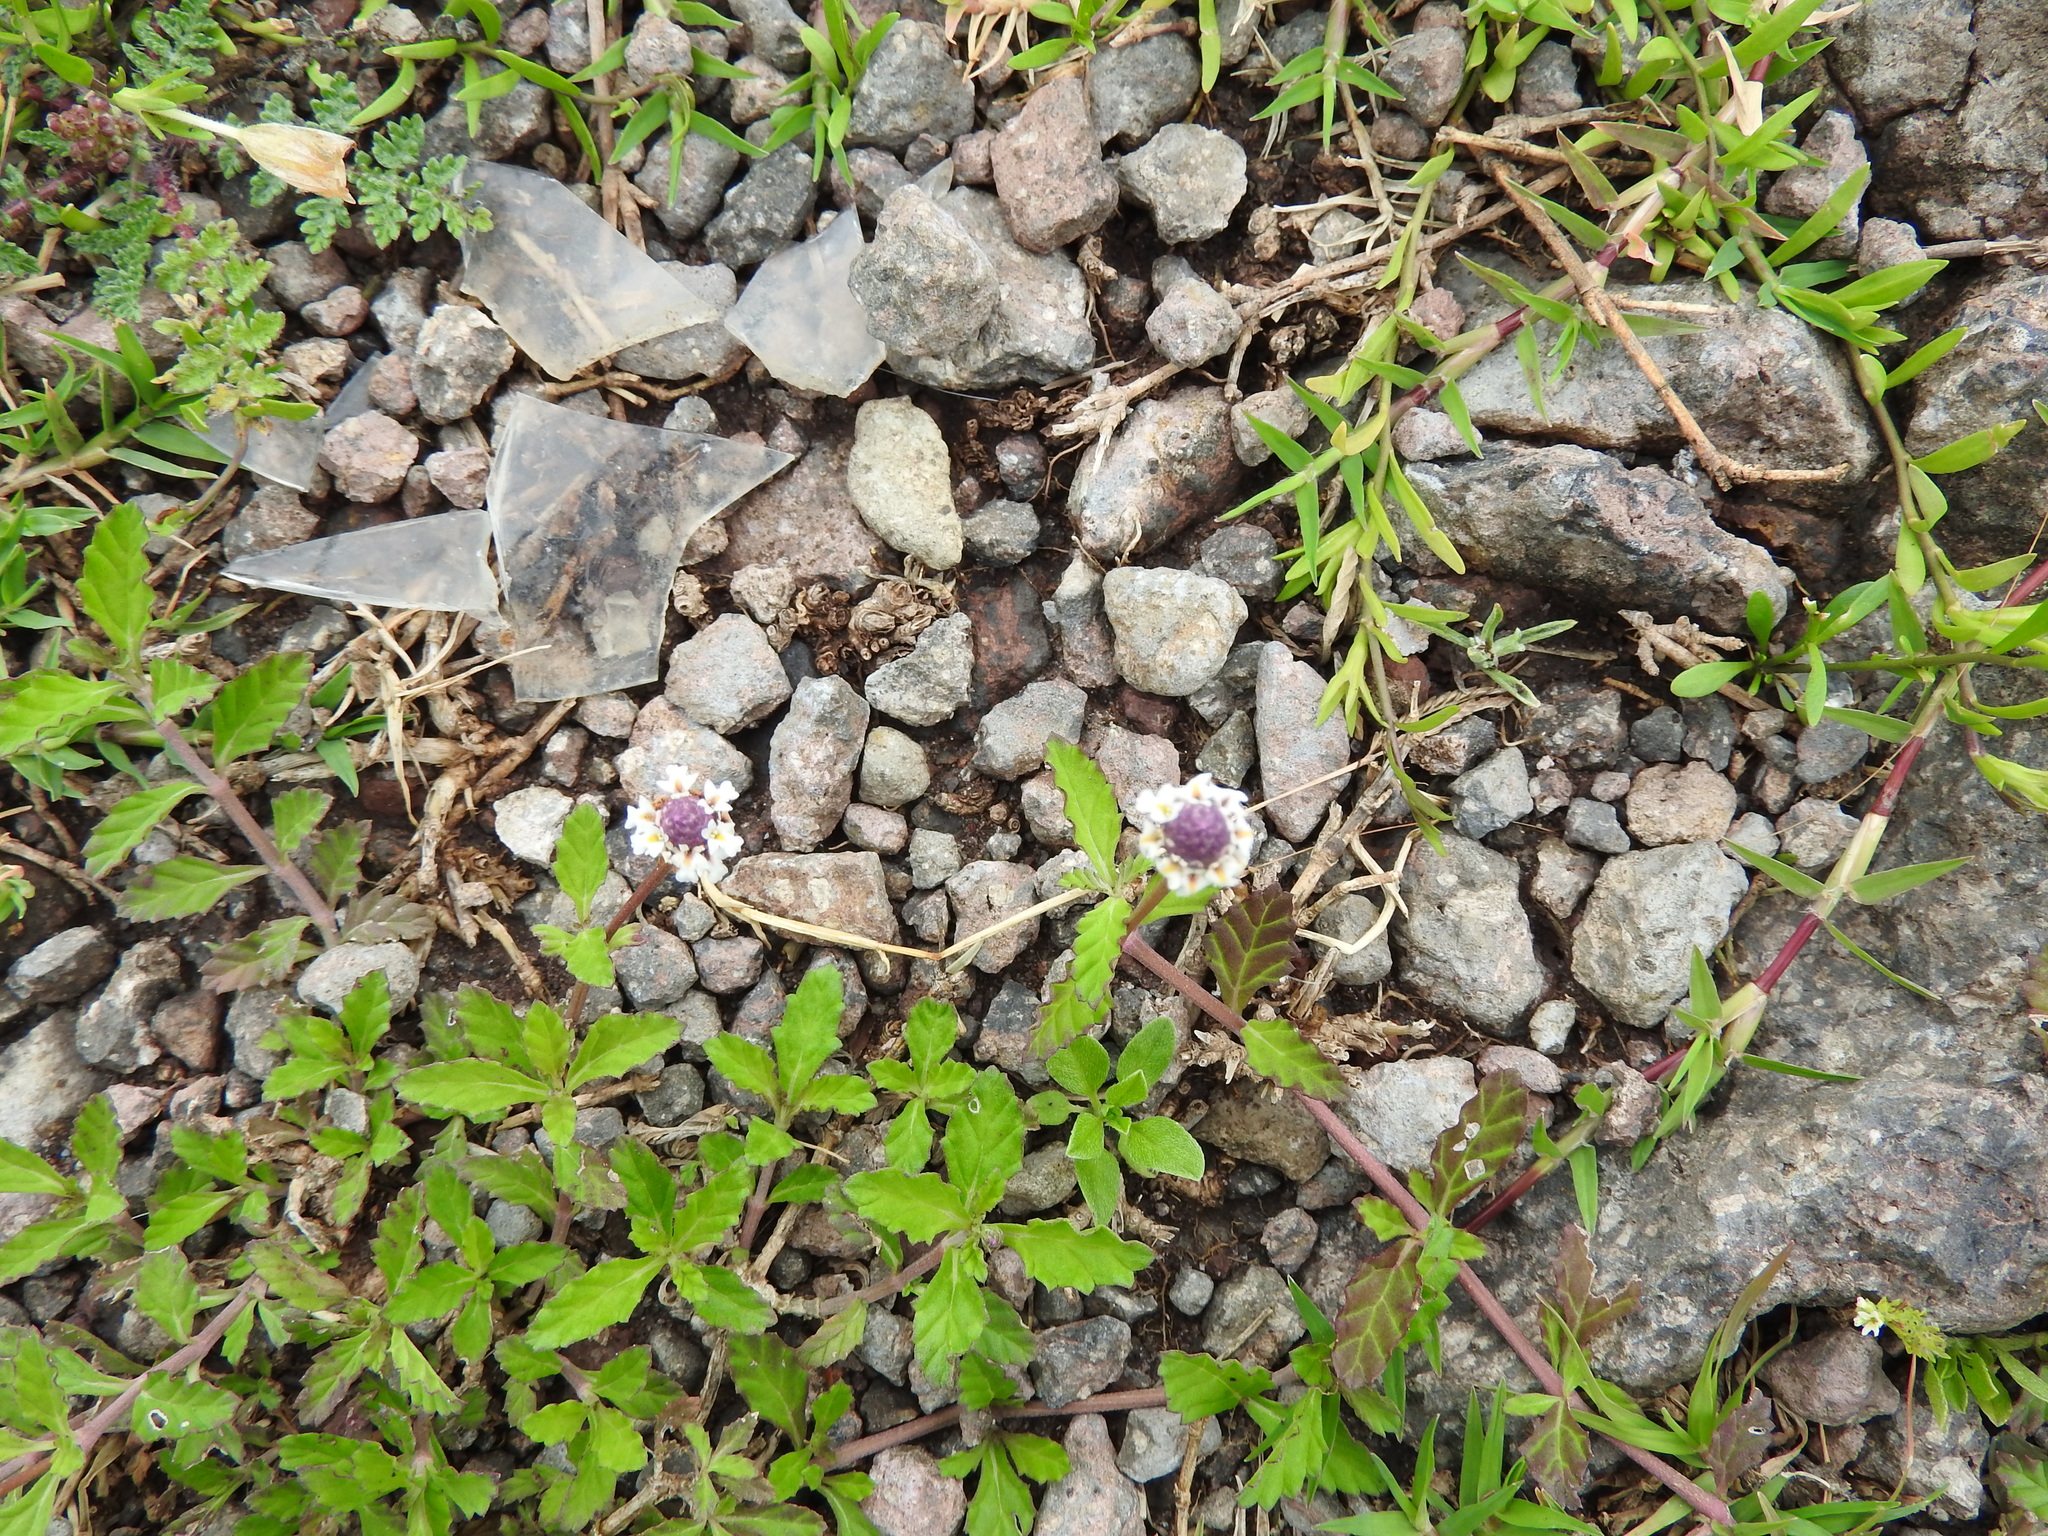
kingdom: Plantae
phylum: Tracheophyta
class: Magnoliopsida
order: Lamiales
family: Verbenaceae
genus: Phyla
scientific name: Phyla nodiflora
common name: Frogfruit
